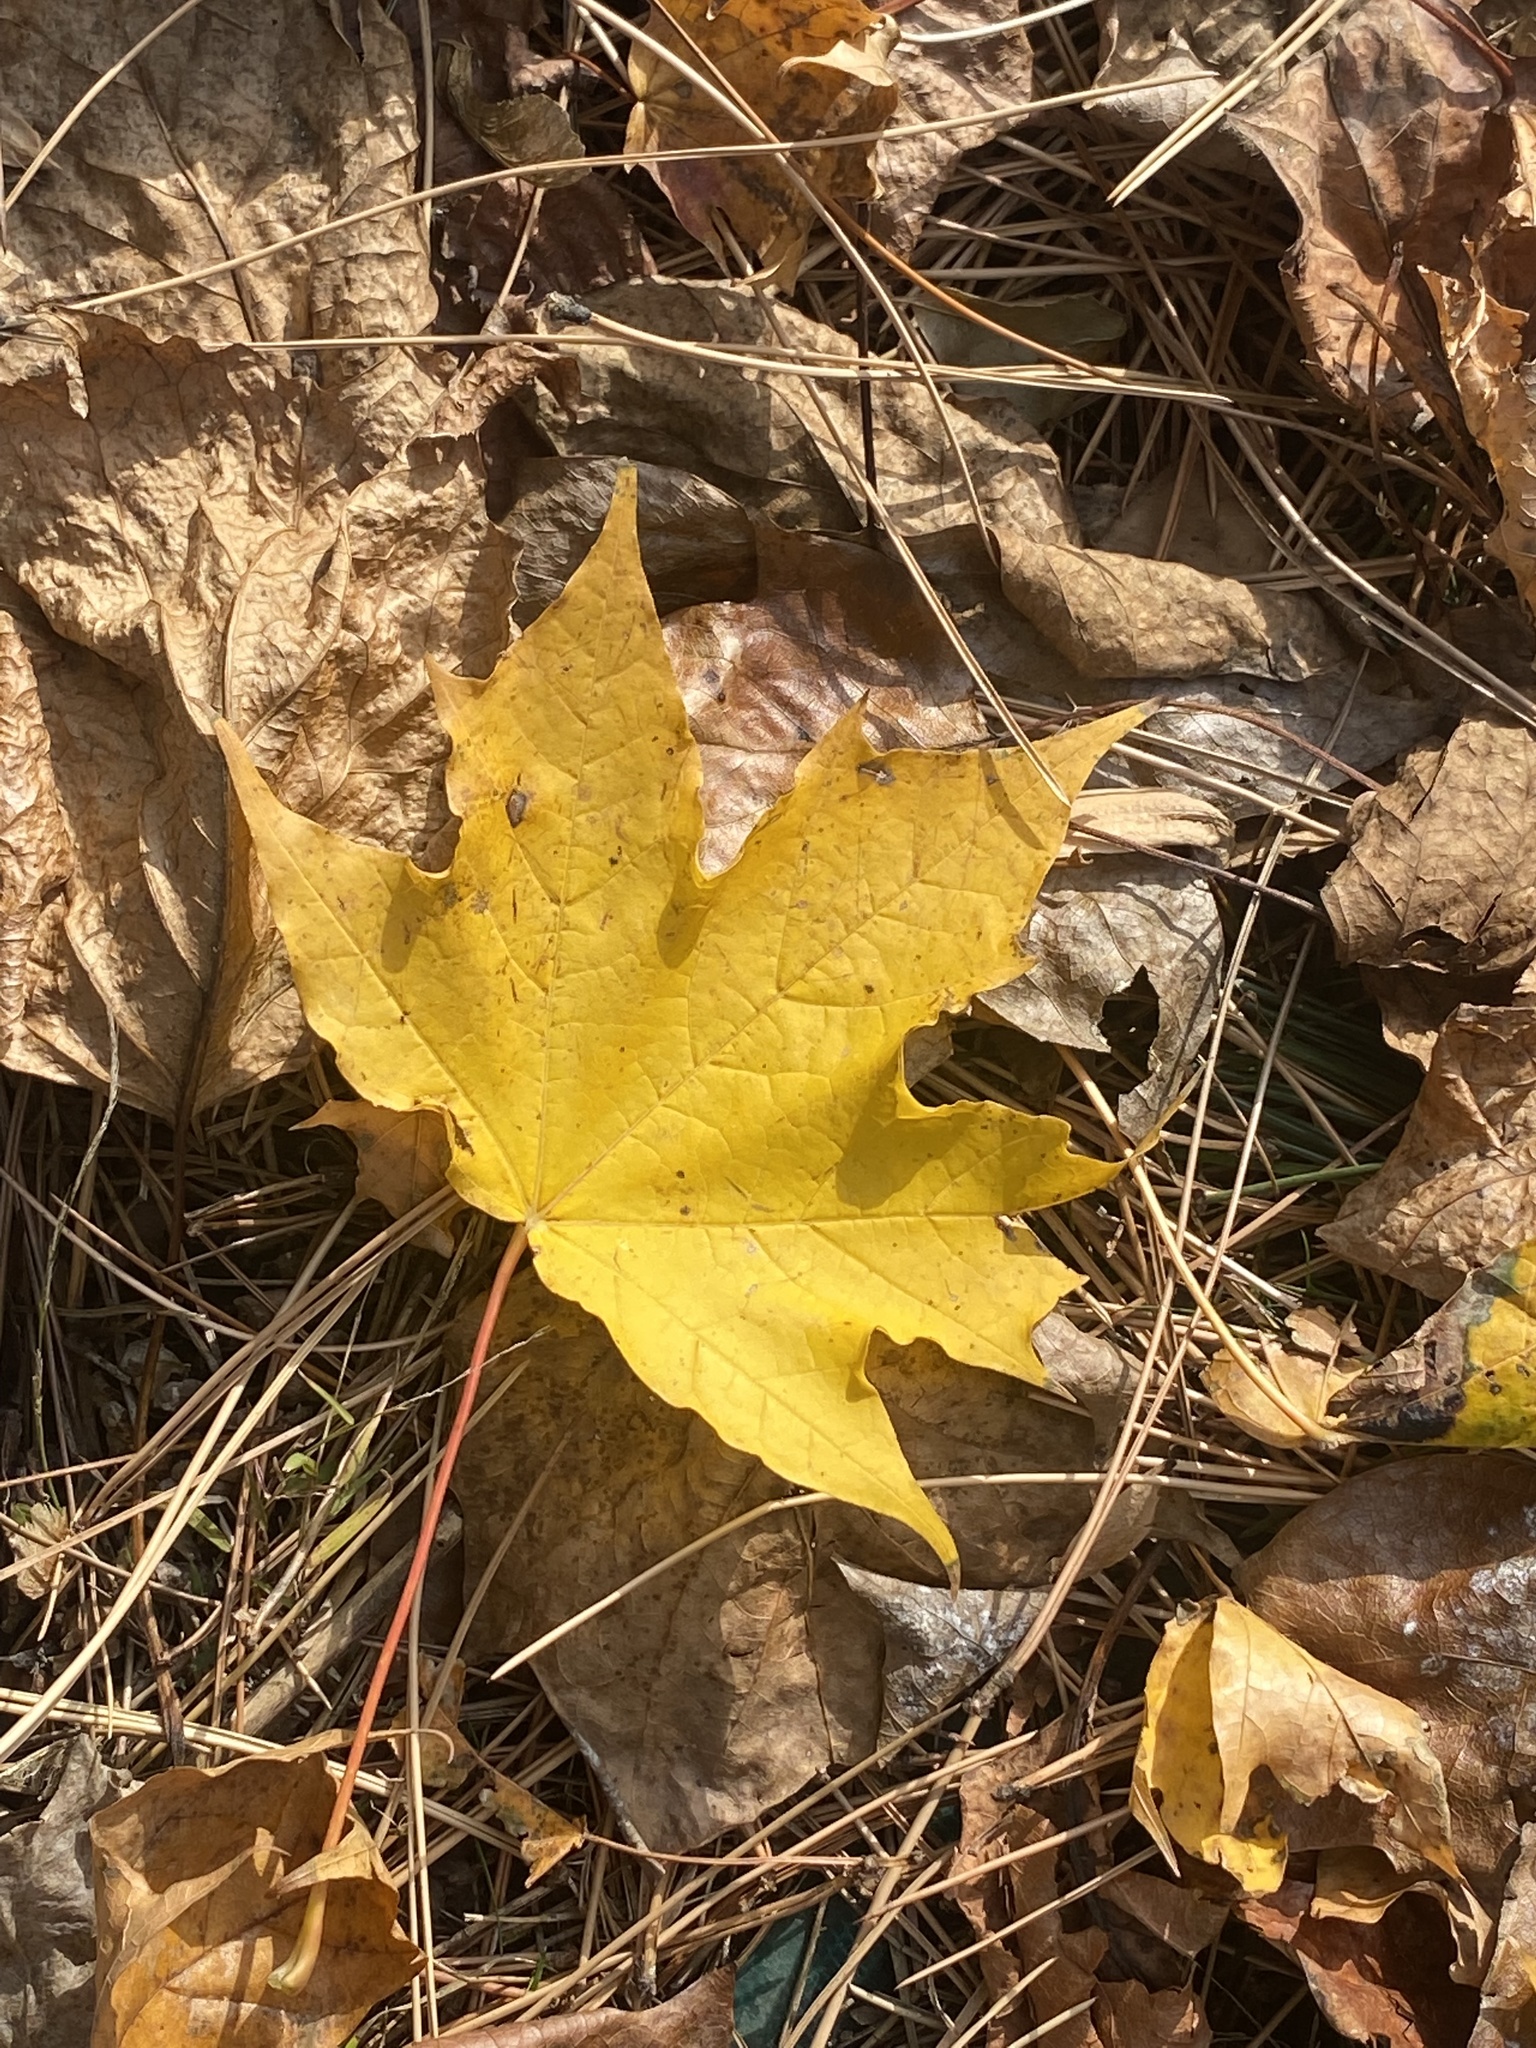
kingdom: Plantae
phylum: Tracheophyta
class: Magnoliopsida
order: Sapindales
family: Sapindaceae
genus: Acer
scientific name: Acer platanoides
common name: Norway maple
